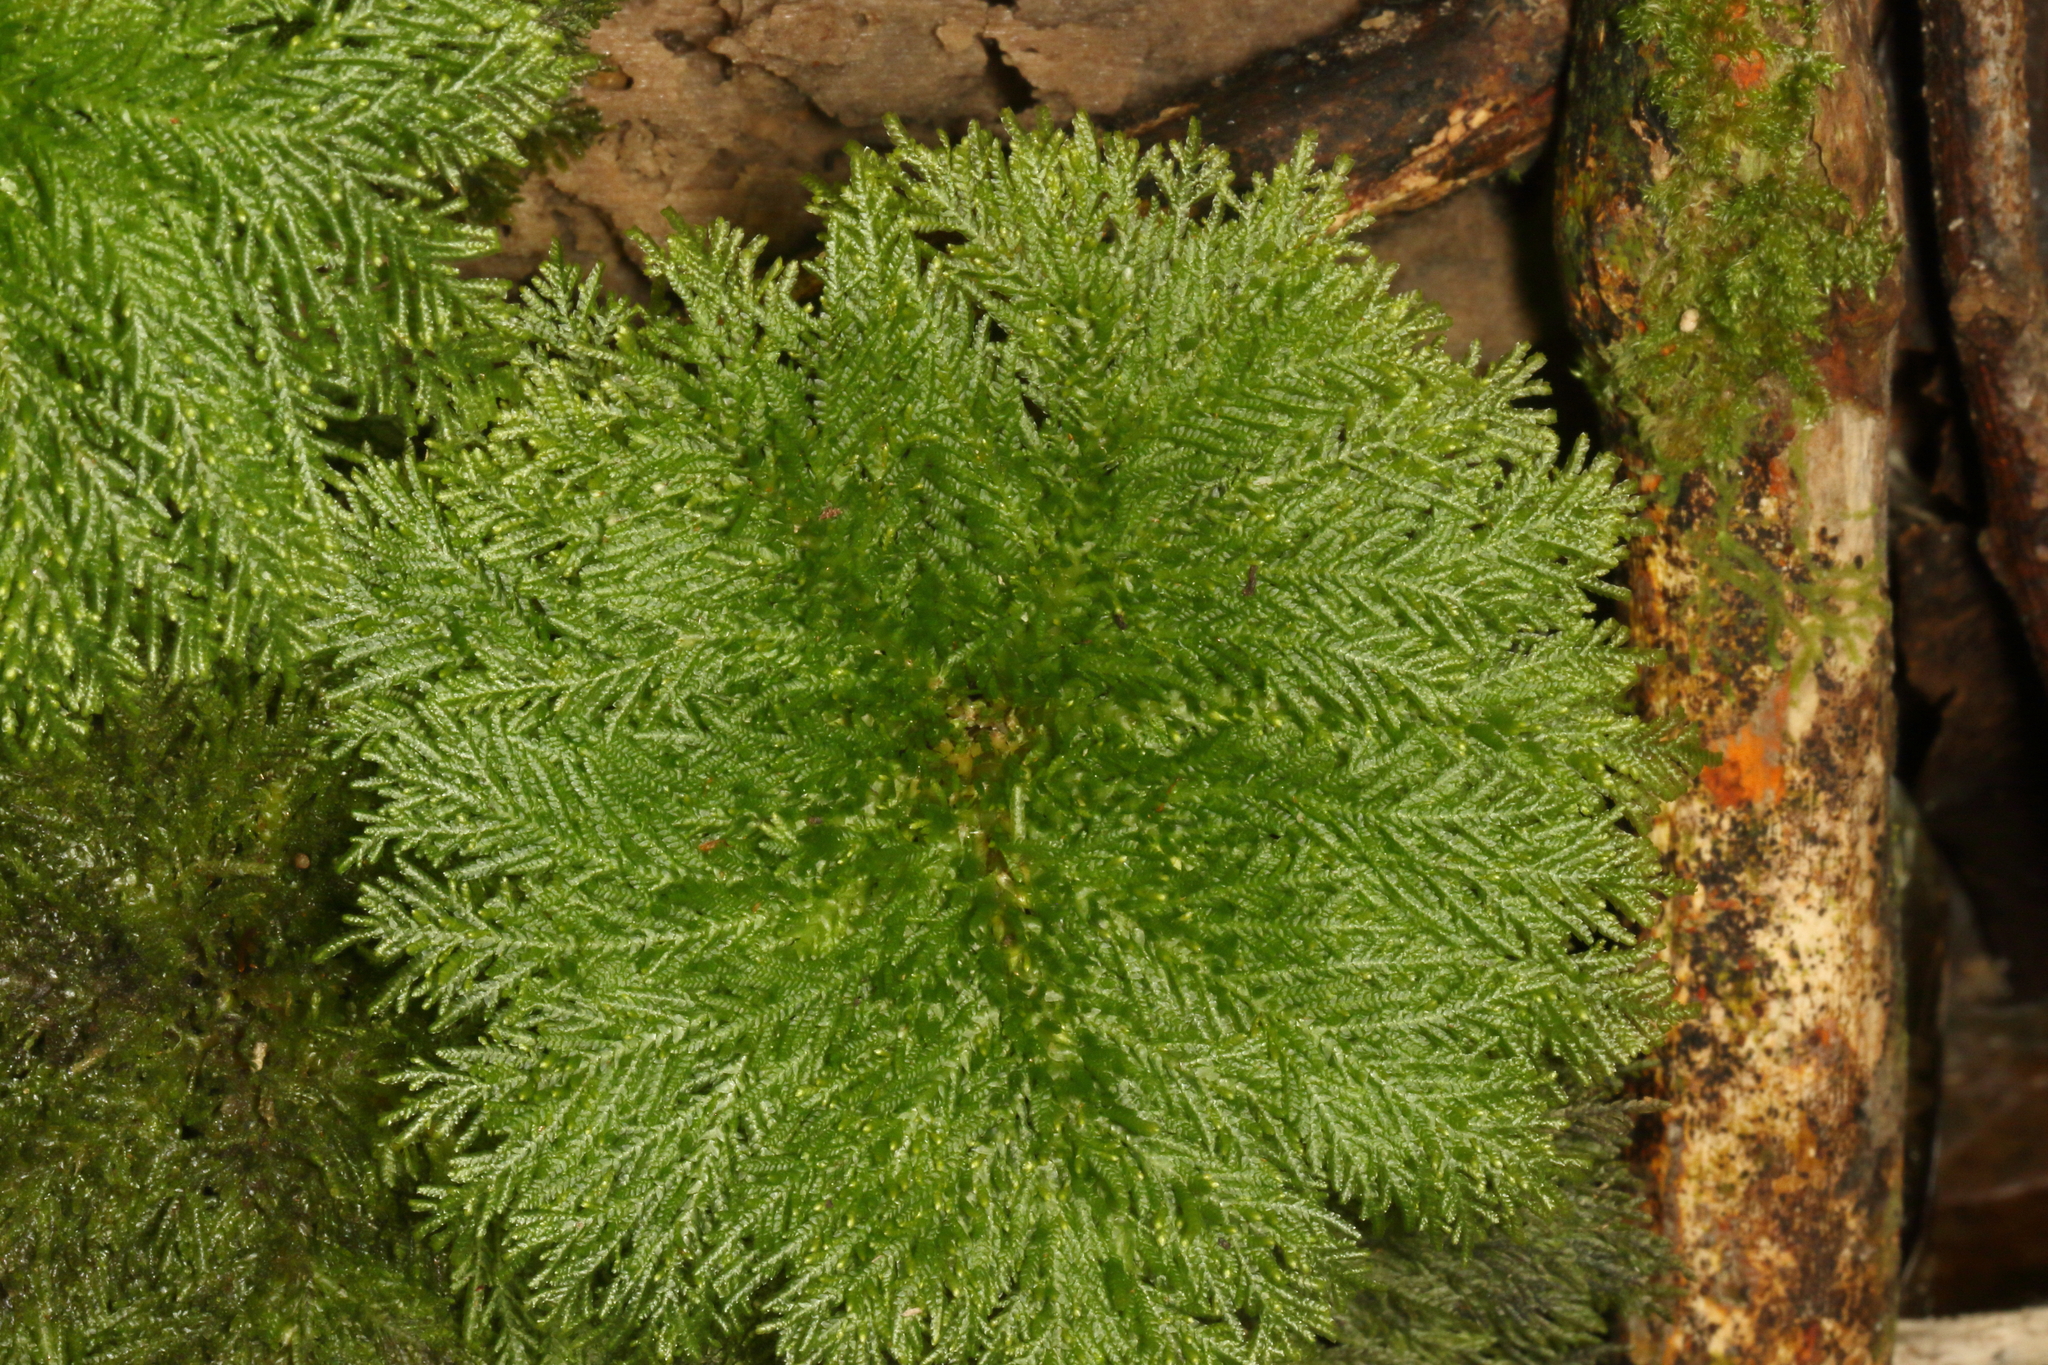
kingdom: Plantae
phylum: Bryophyta
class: Bryopsida
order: Hypopterygiales
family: Hypopterygiaceae
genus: Dendrohypopterygium
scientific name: Dendrohypopterygium filiculiforme
